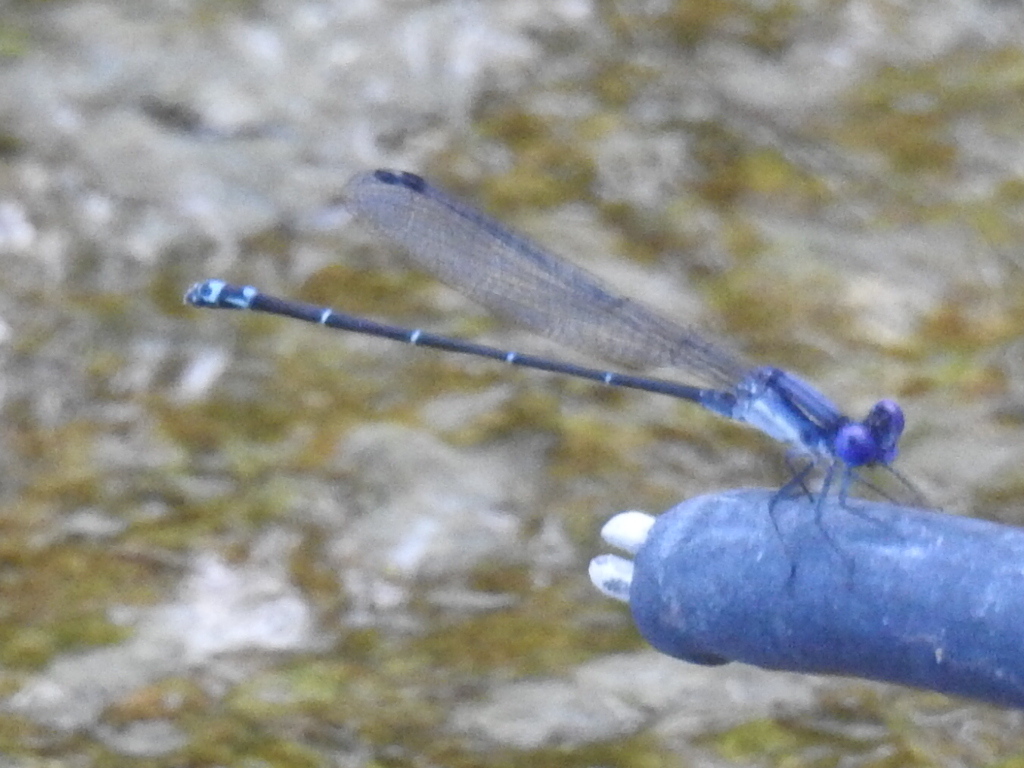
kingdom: Animalia
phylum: Arthropoda
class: Insecta
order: Odonata
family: Coenagrionidae
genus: Argia
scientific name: Argia translata
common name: Dusky dancer
